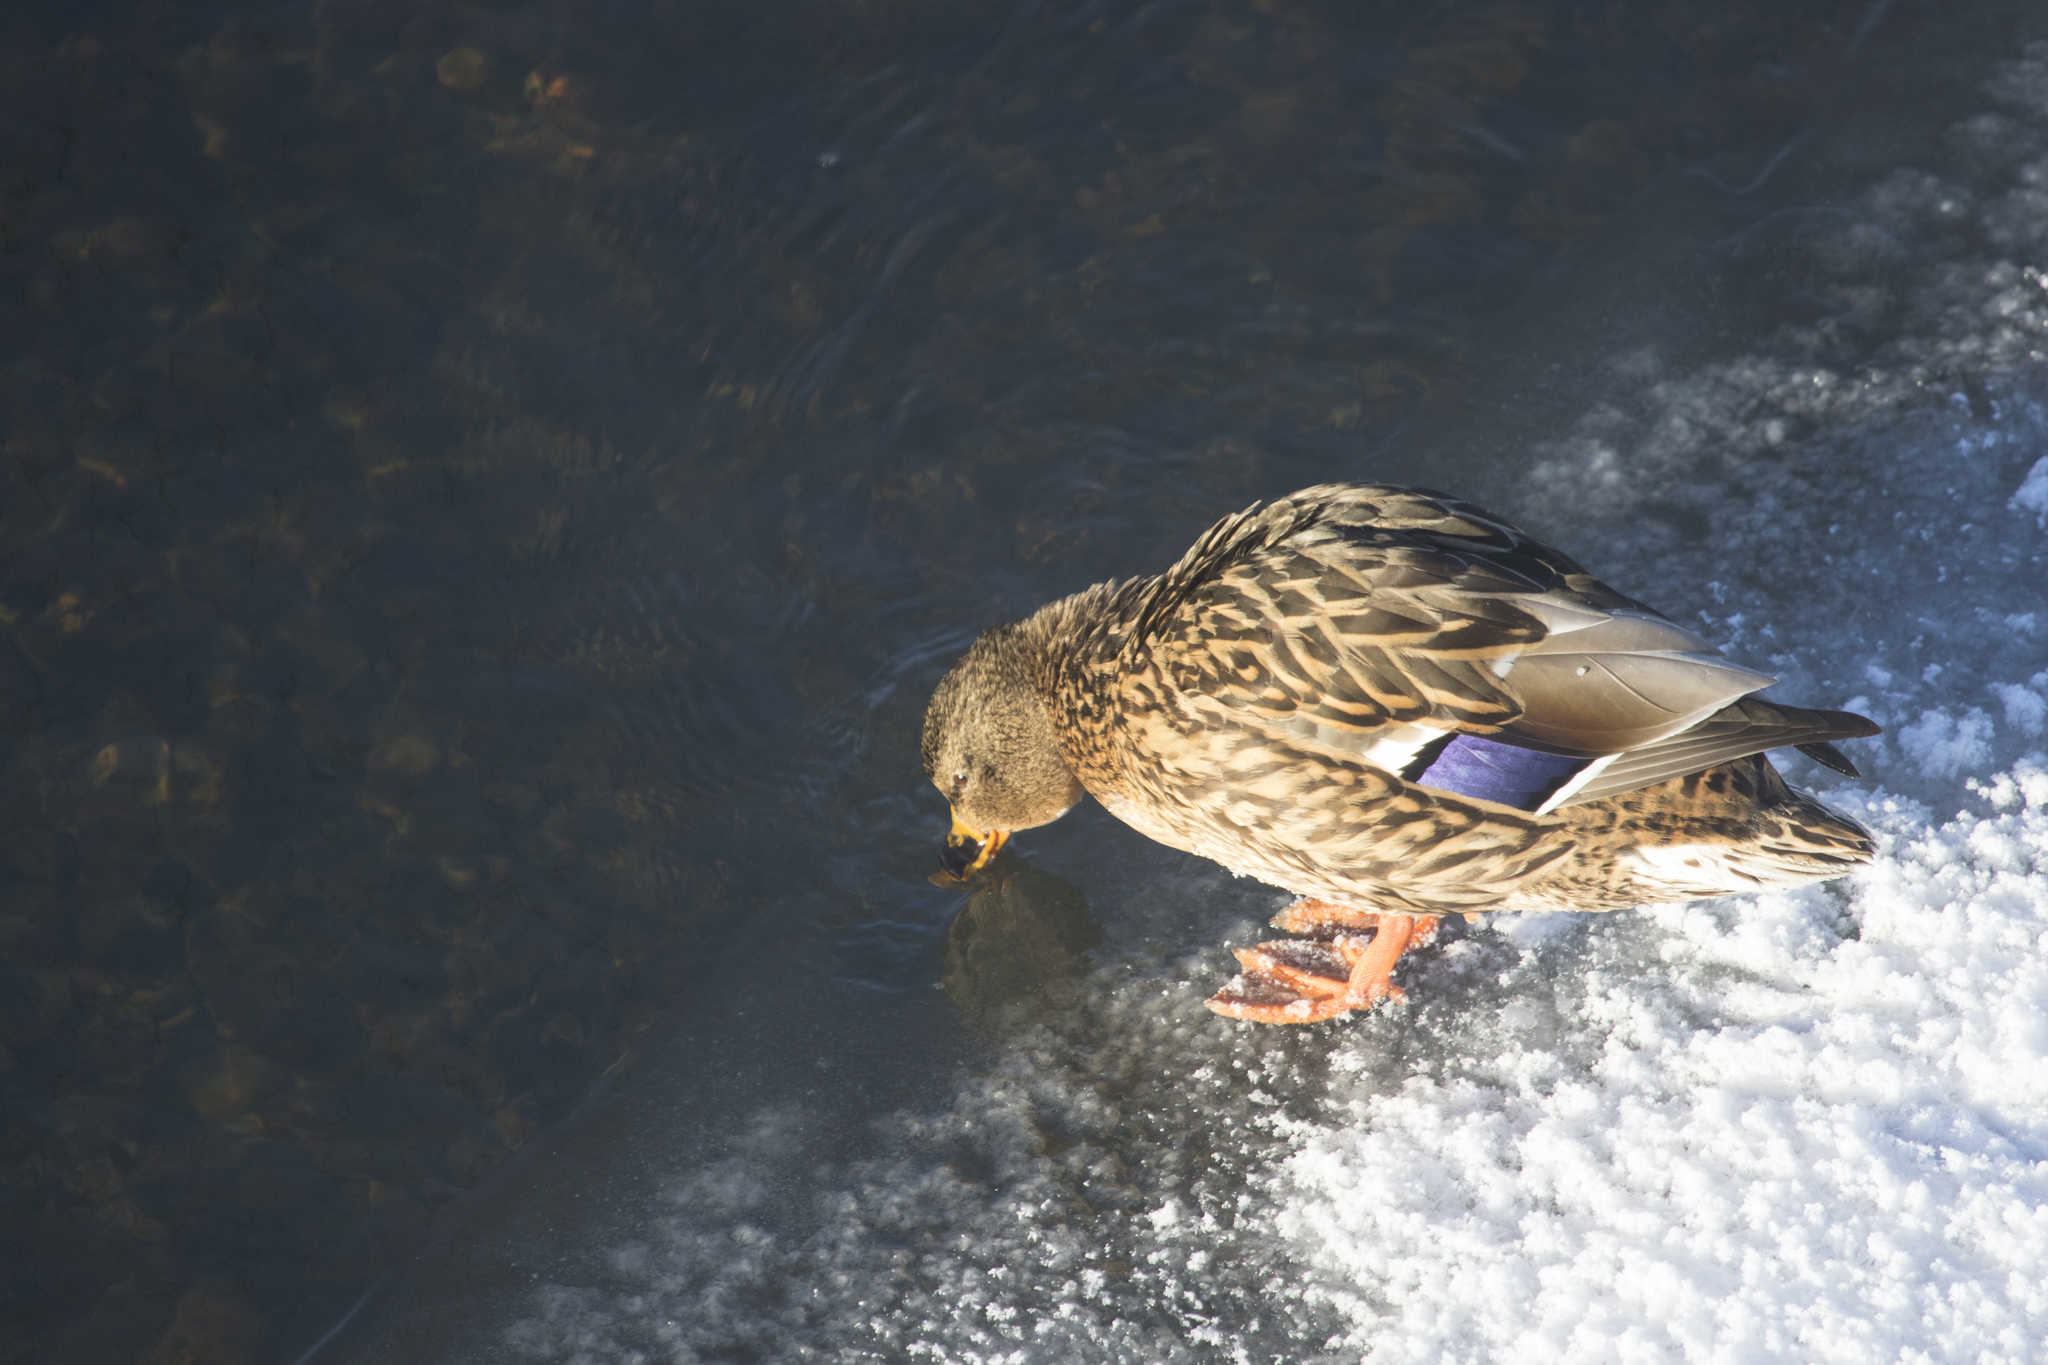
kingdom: Animalia
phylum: Chordata
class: Aves
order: Anseriformes
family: Anatidae
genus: Anas
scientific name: Anas platyrhynchos
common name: Mallard
